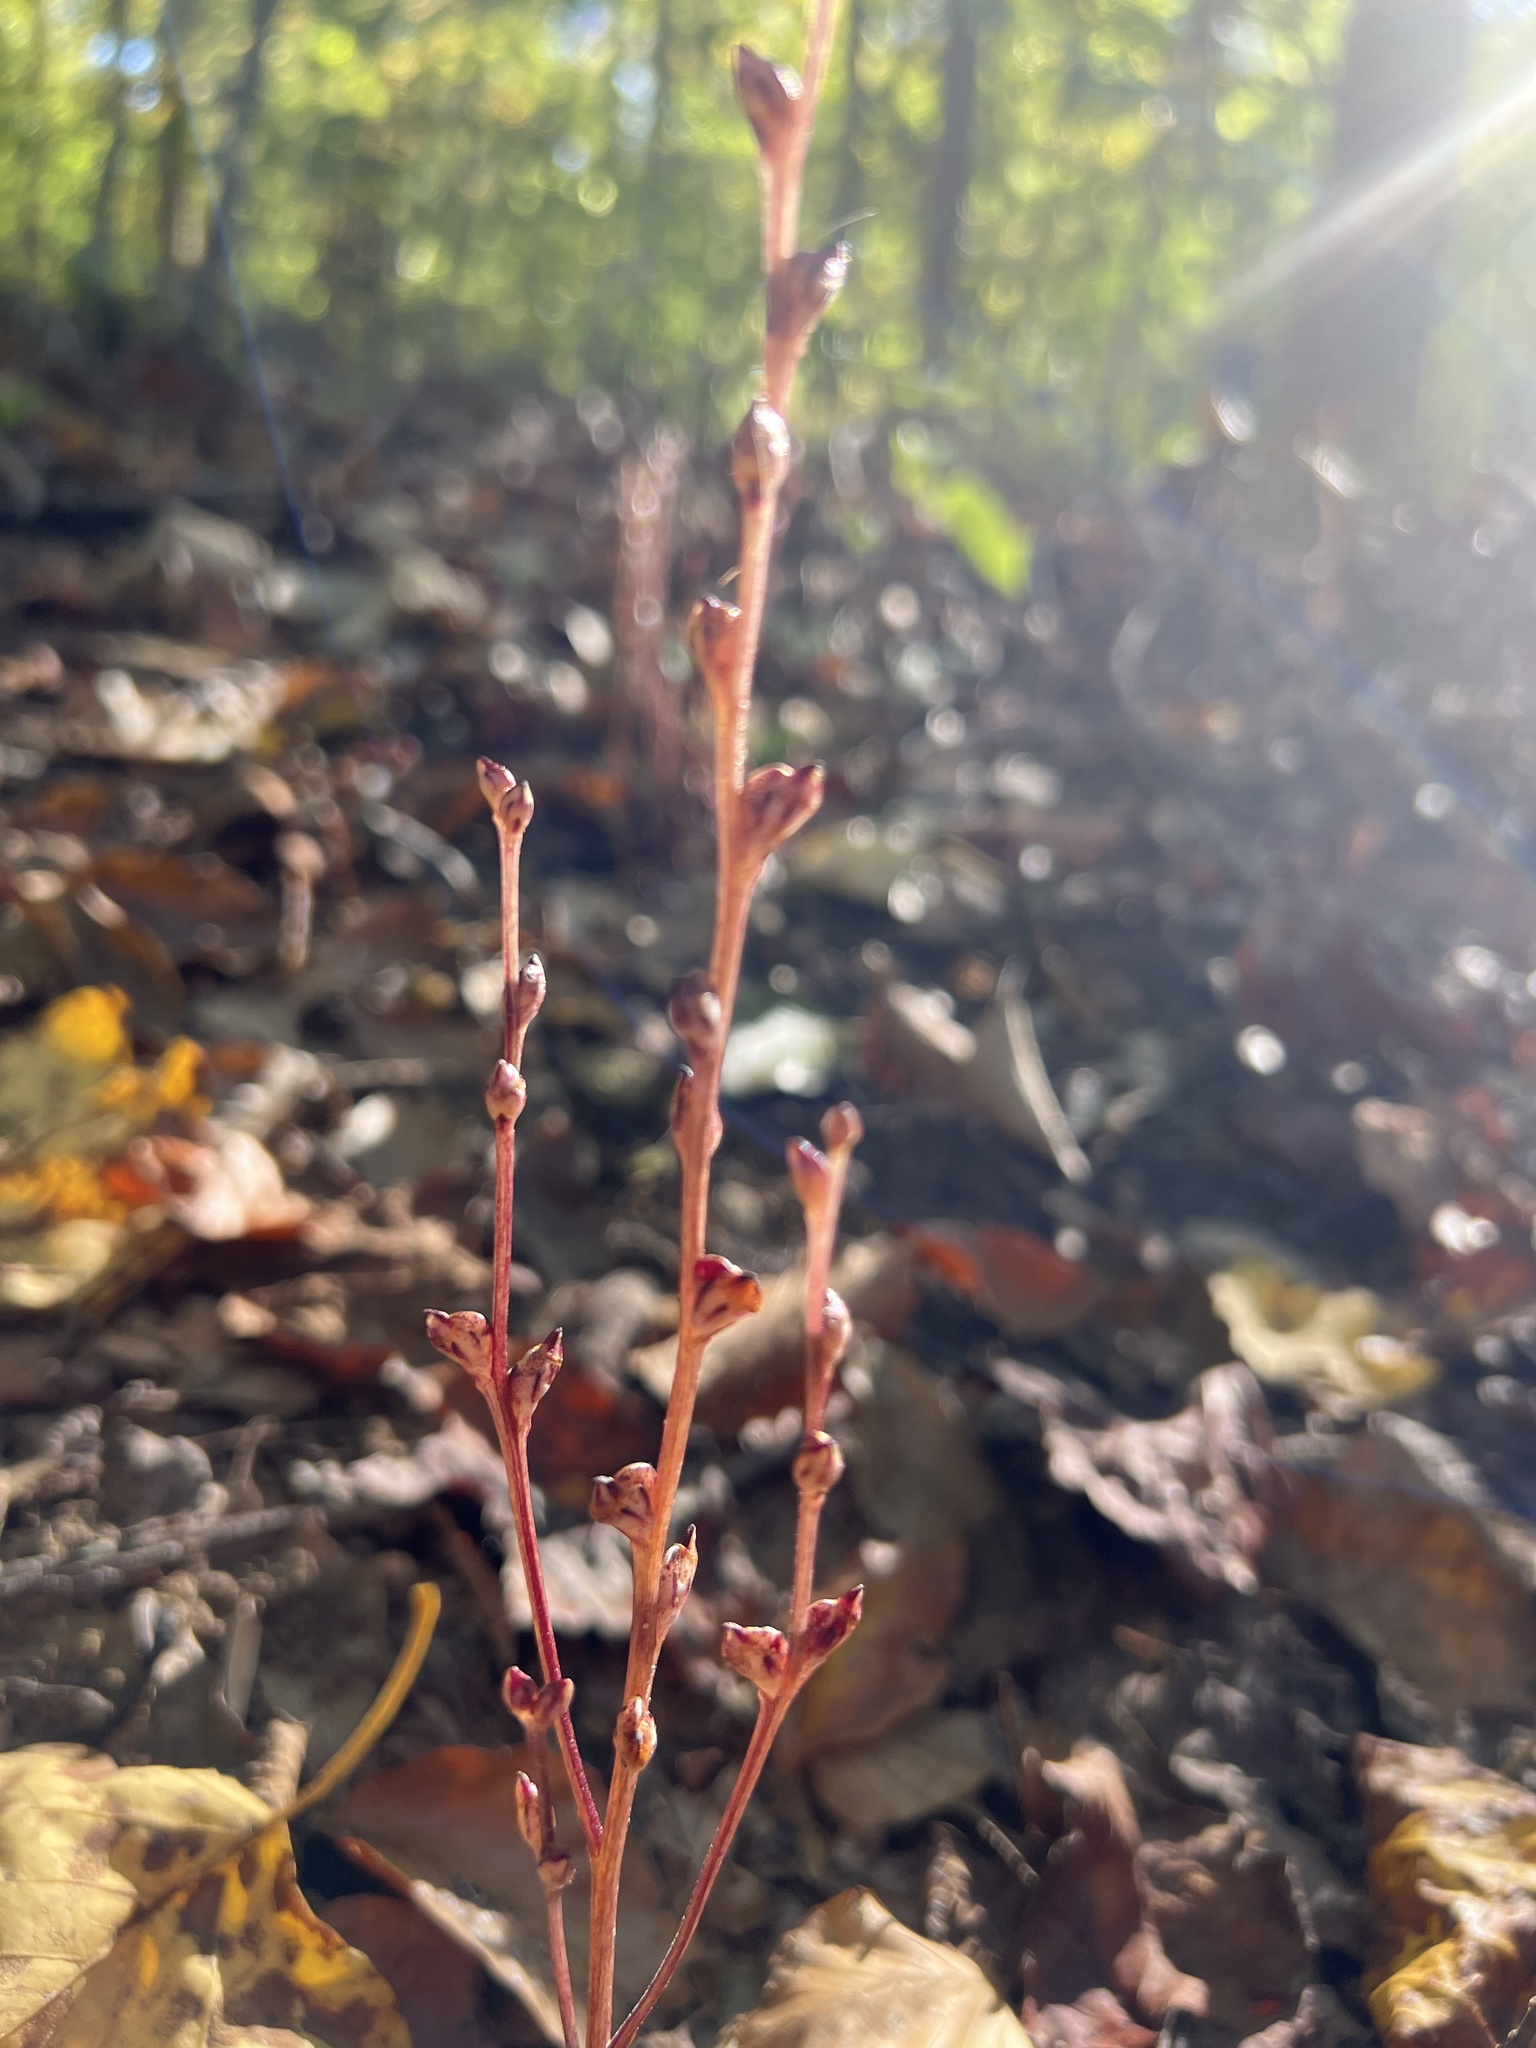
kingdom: Plantae
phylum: Tracheophyta
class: Magnoliopsida
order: Lamiales
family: Orobanchaceae
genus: Epifagus
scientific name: Epifagus virginiana
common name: Beechdrops
